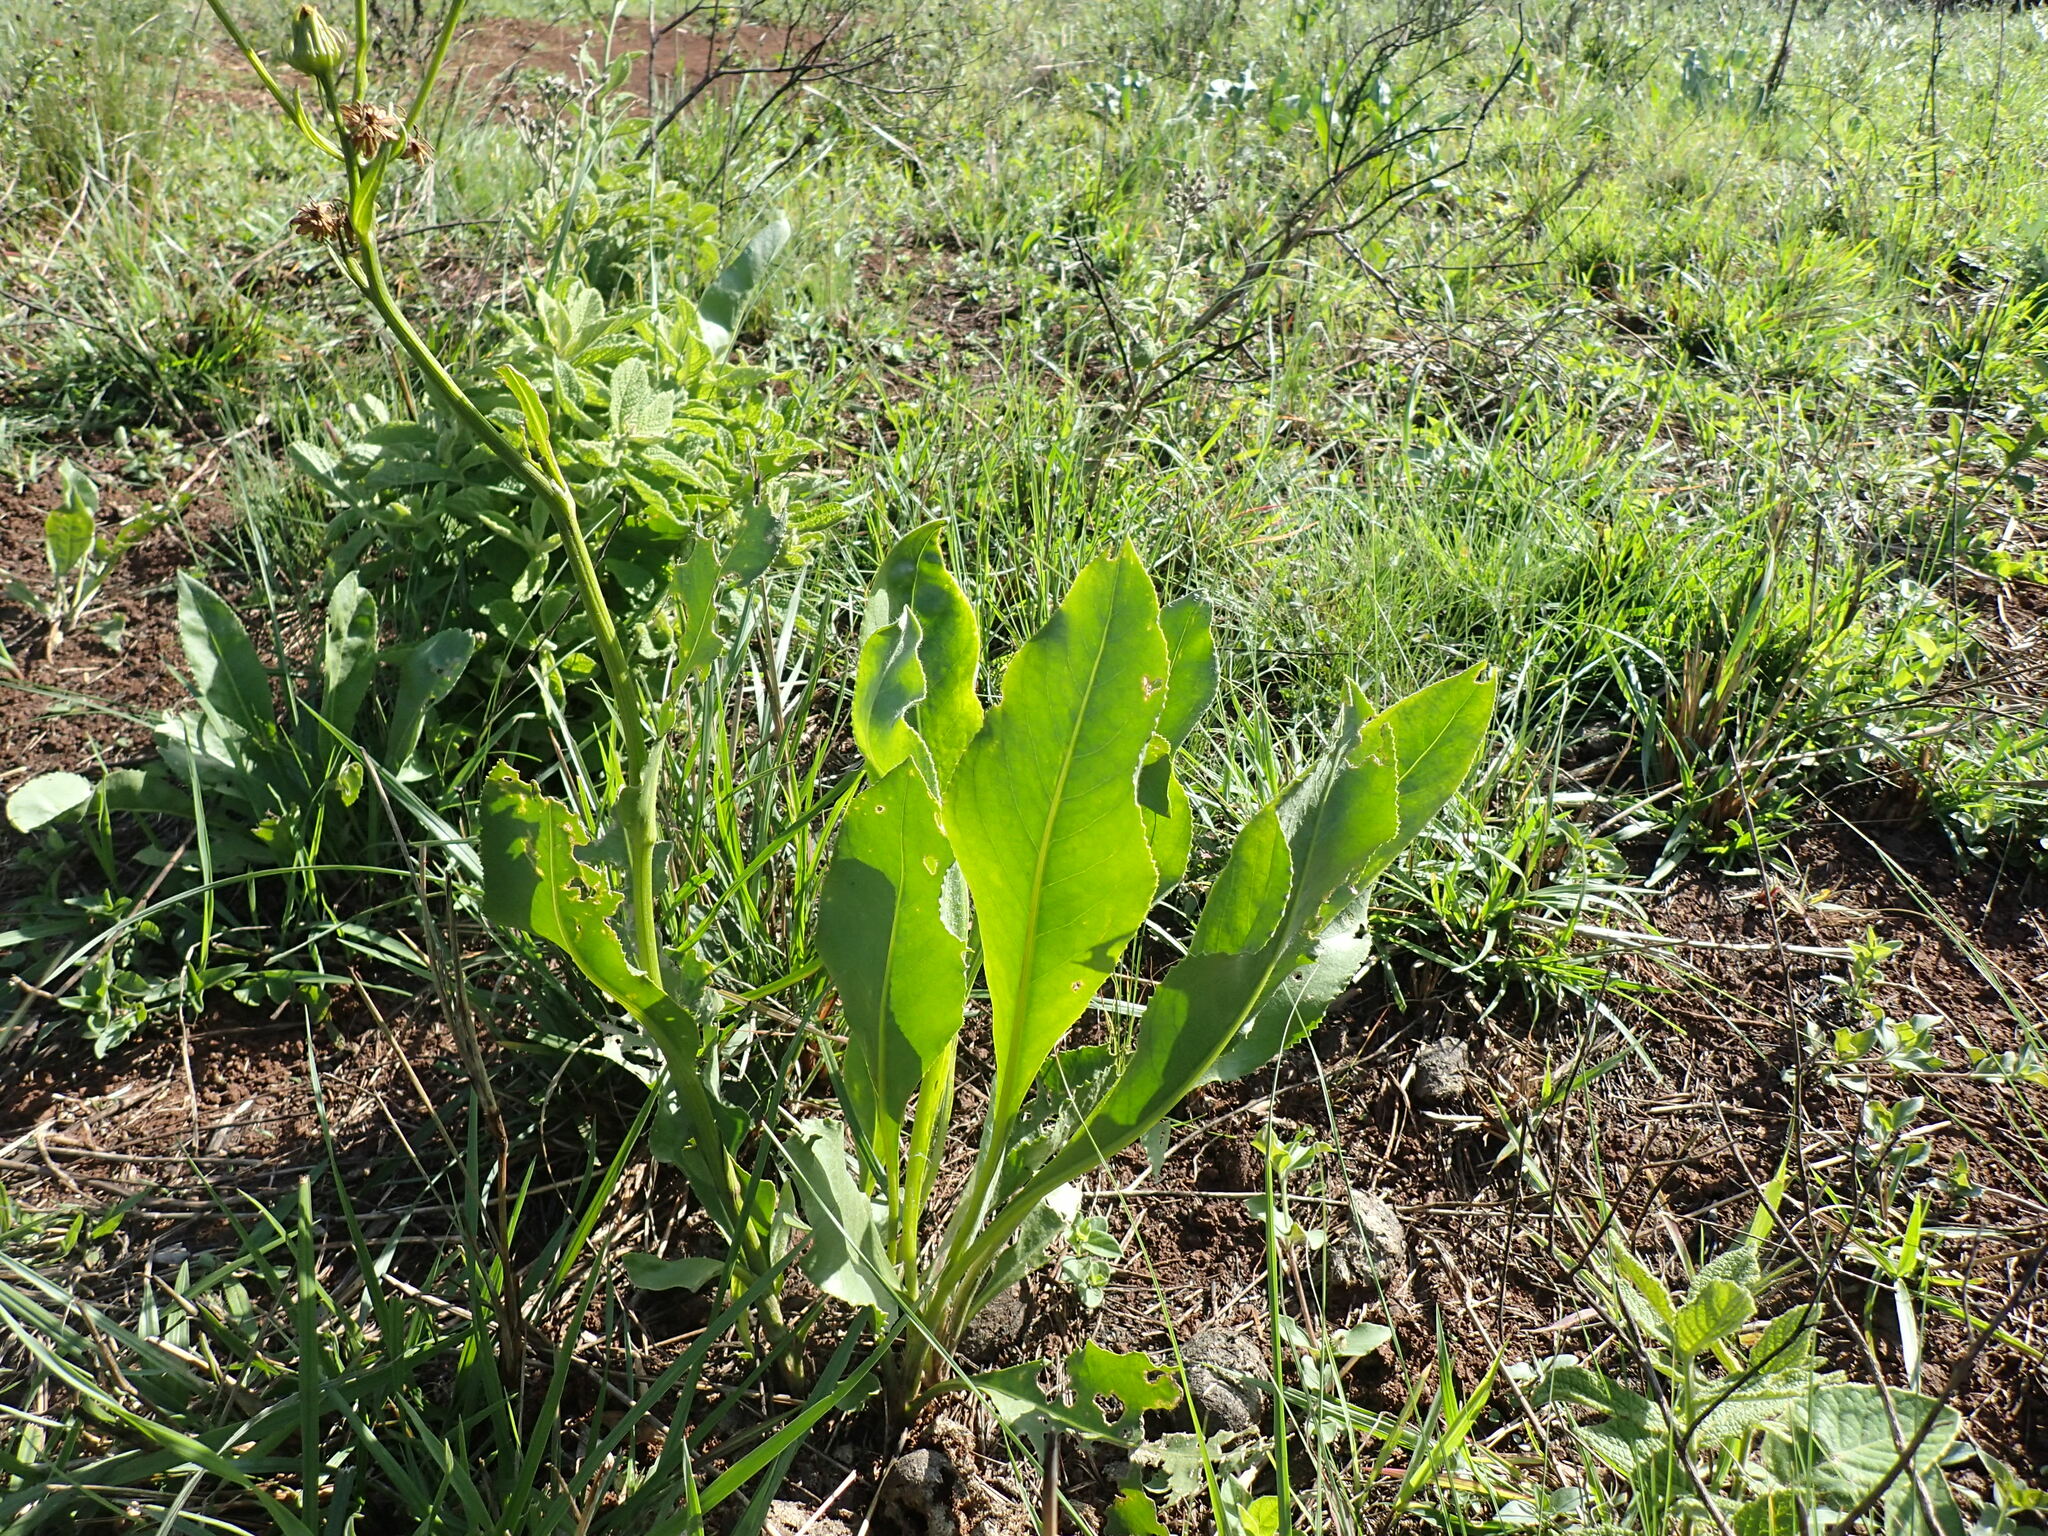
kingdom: Plantae
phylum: Tracheophyta
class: Magnoliopsida
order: Asterales
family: Asteraceae
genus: Senecio
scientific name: Senecio coronatus
